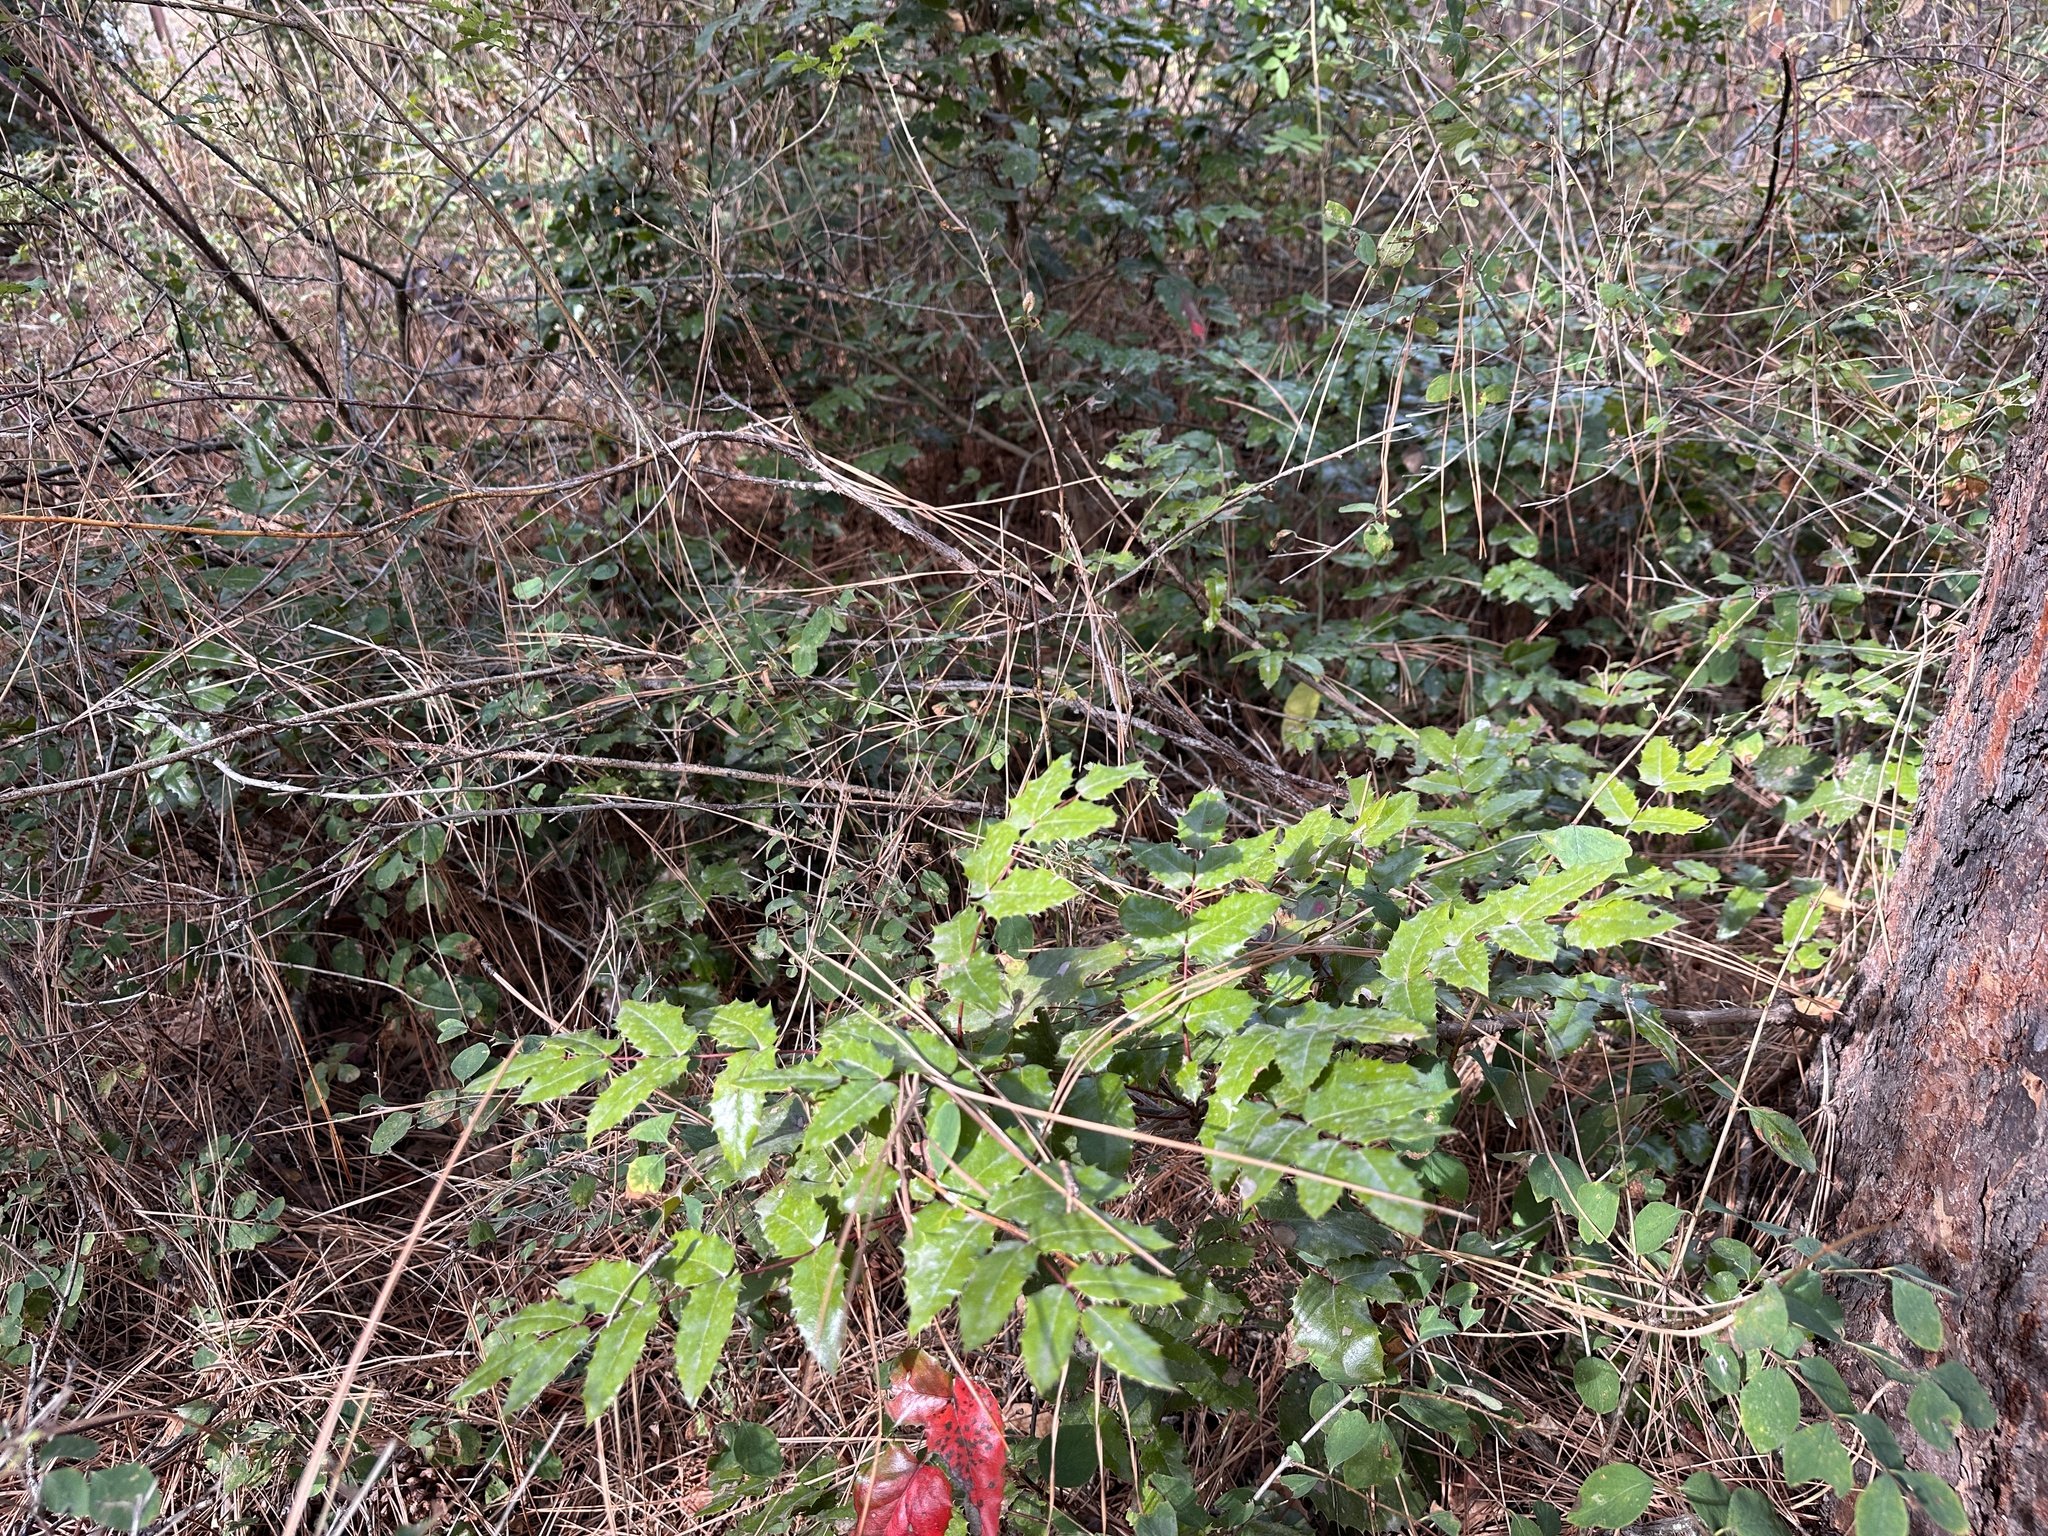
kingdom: Plantae
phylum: Tracheophyta
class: Magnoliopsida
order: Ranunculales
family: Berberidaceae
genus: Mahonia
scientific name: Mahonia aquifolium
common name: Oregon-grape
